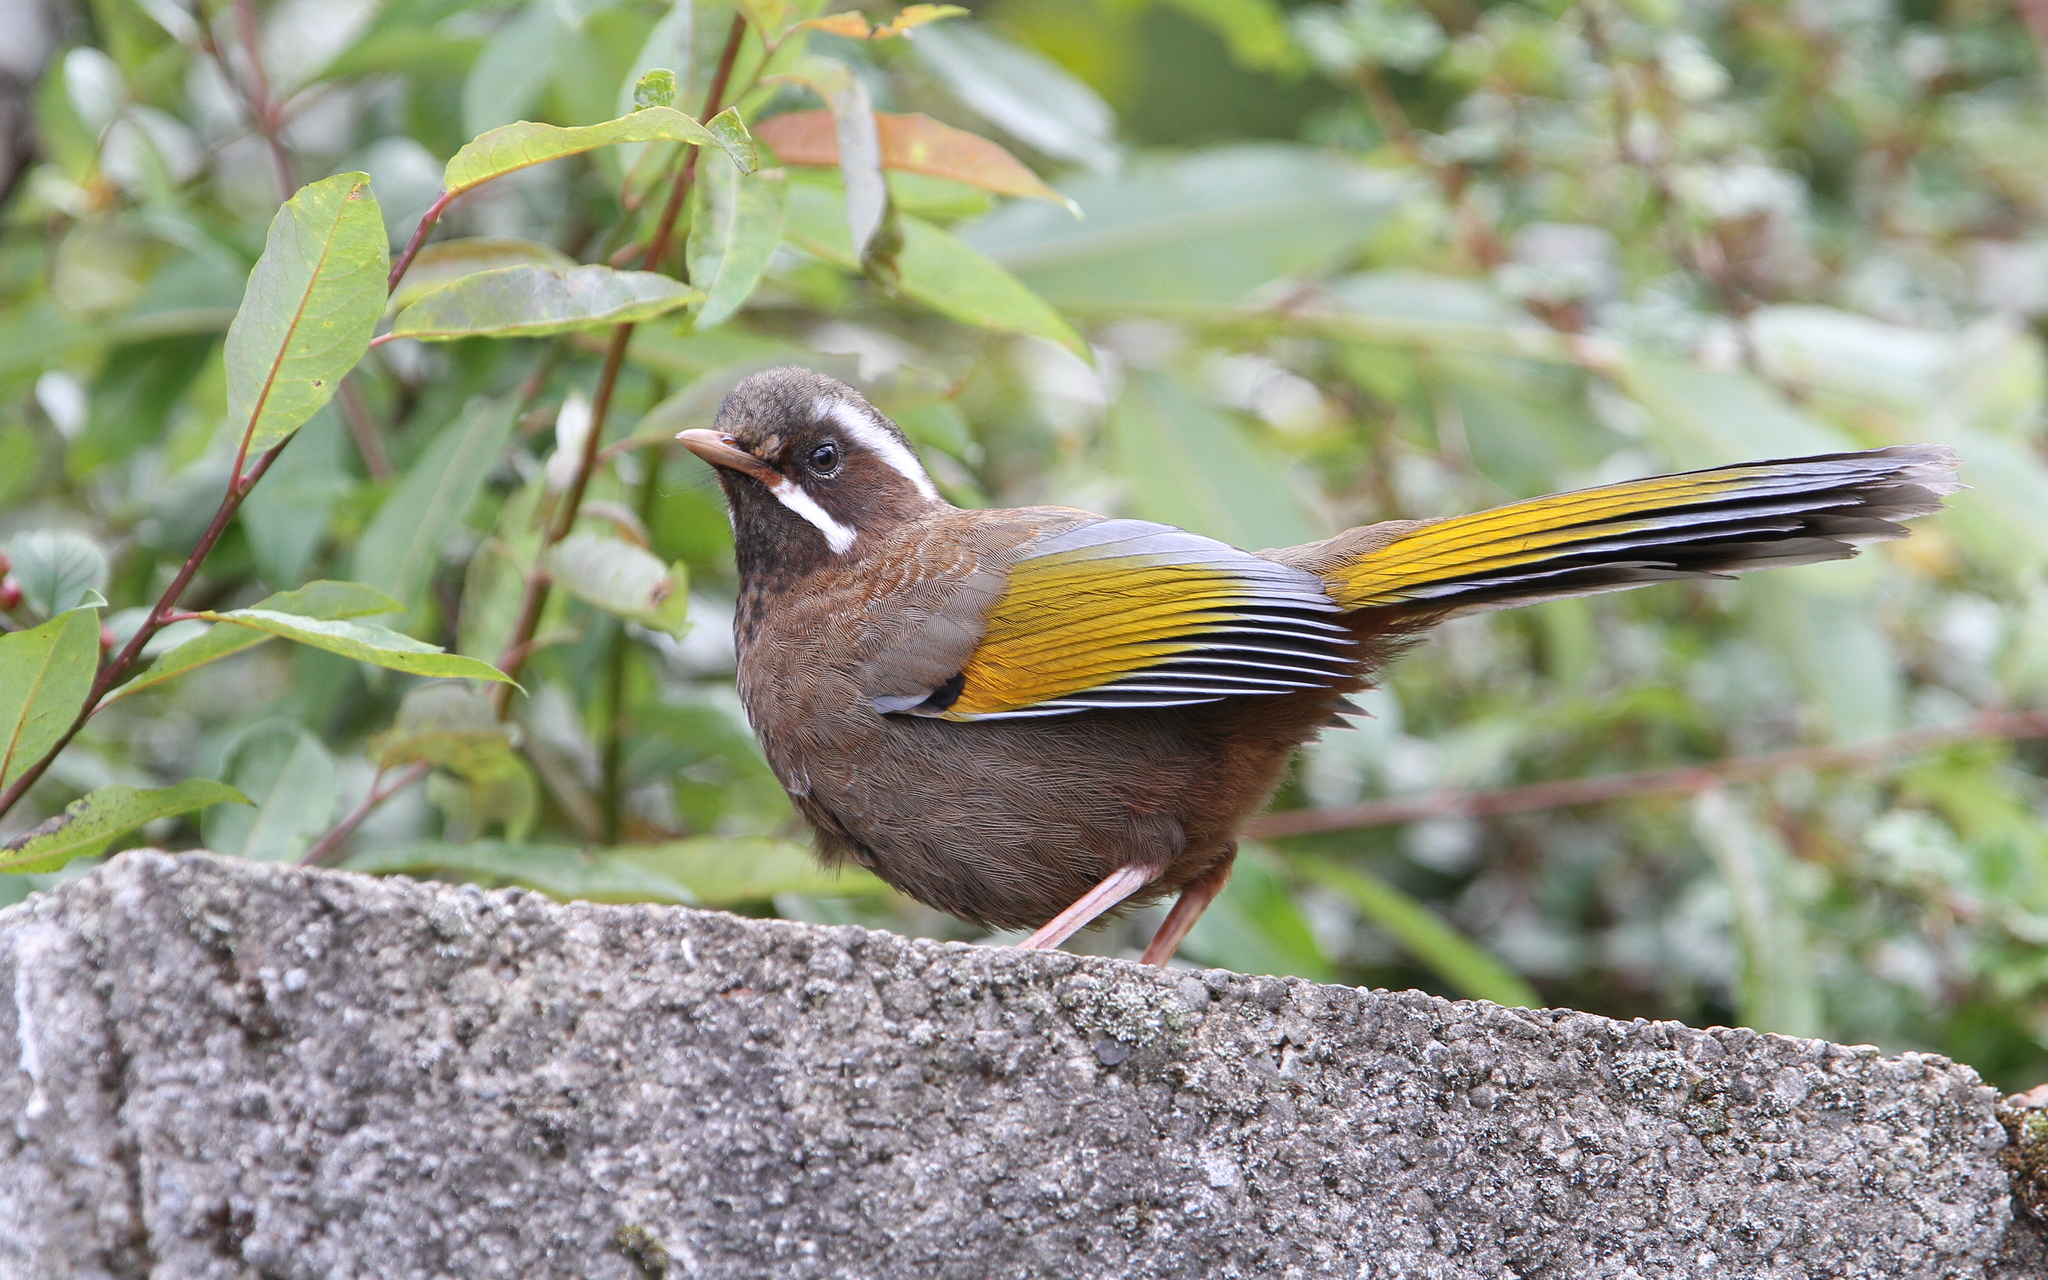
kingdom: Animalia
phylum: Chordata
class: Aves
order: Passeriformes
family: Leiothrichidae
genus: Trochalopteron
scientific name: Trochalopteron morrisonianum
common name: White-whiskered laughingthrush
